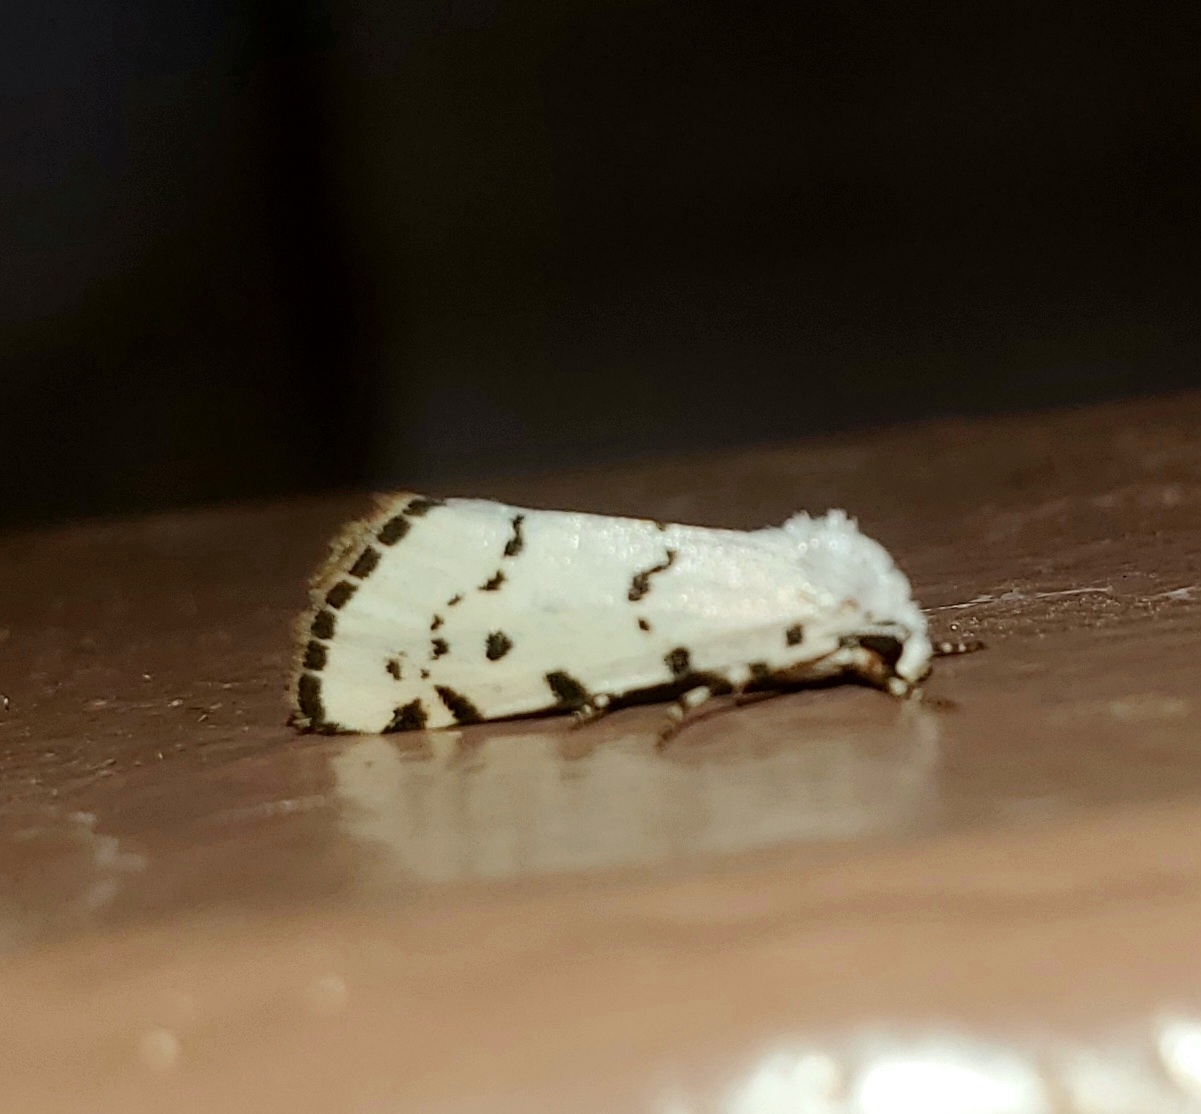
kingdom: Animalia
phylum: Arthropoda
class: Insecta
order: Lepidoptera
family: Noctuidae
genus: Grotella
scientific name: Grotella binda
